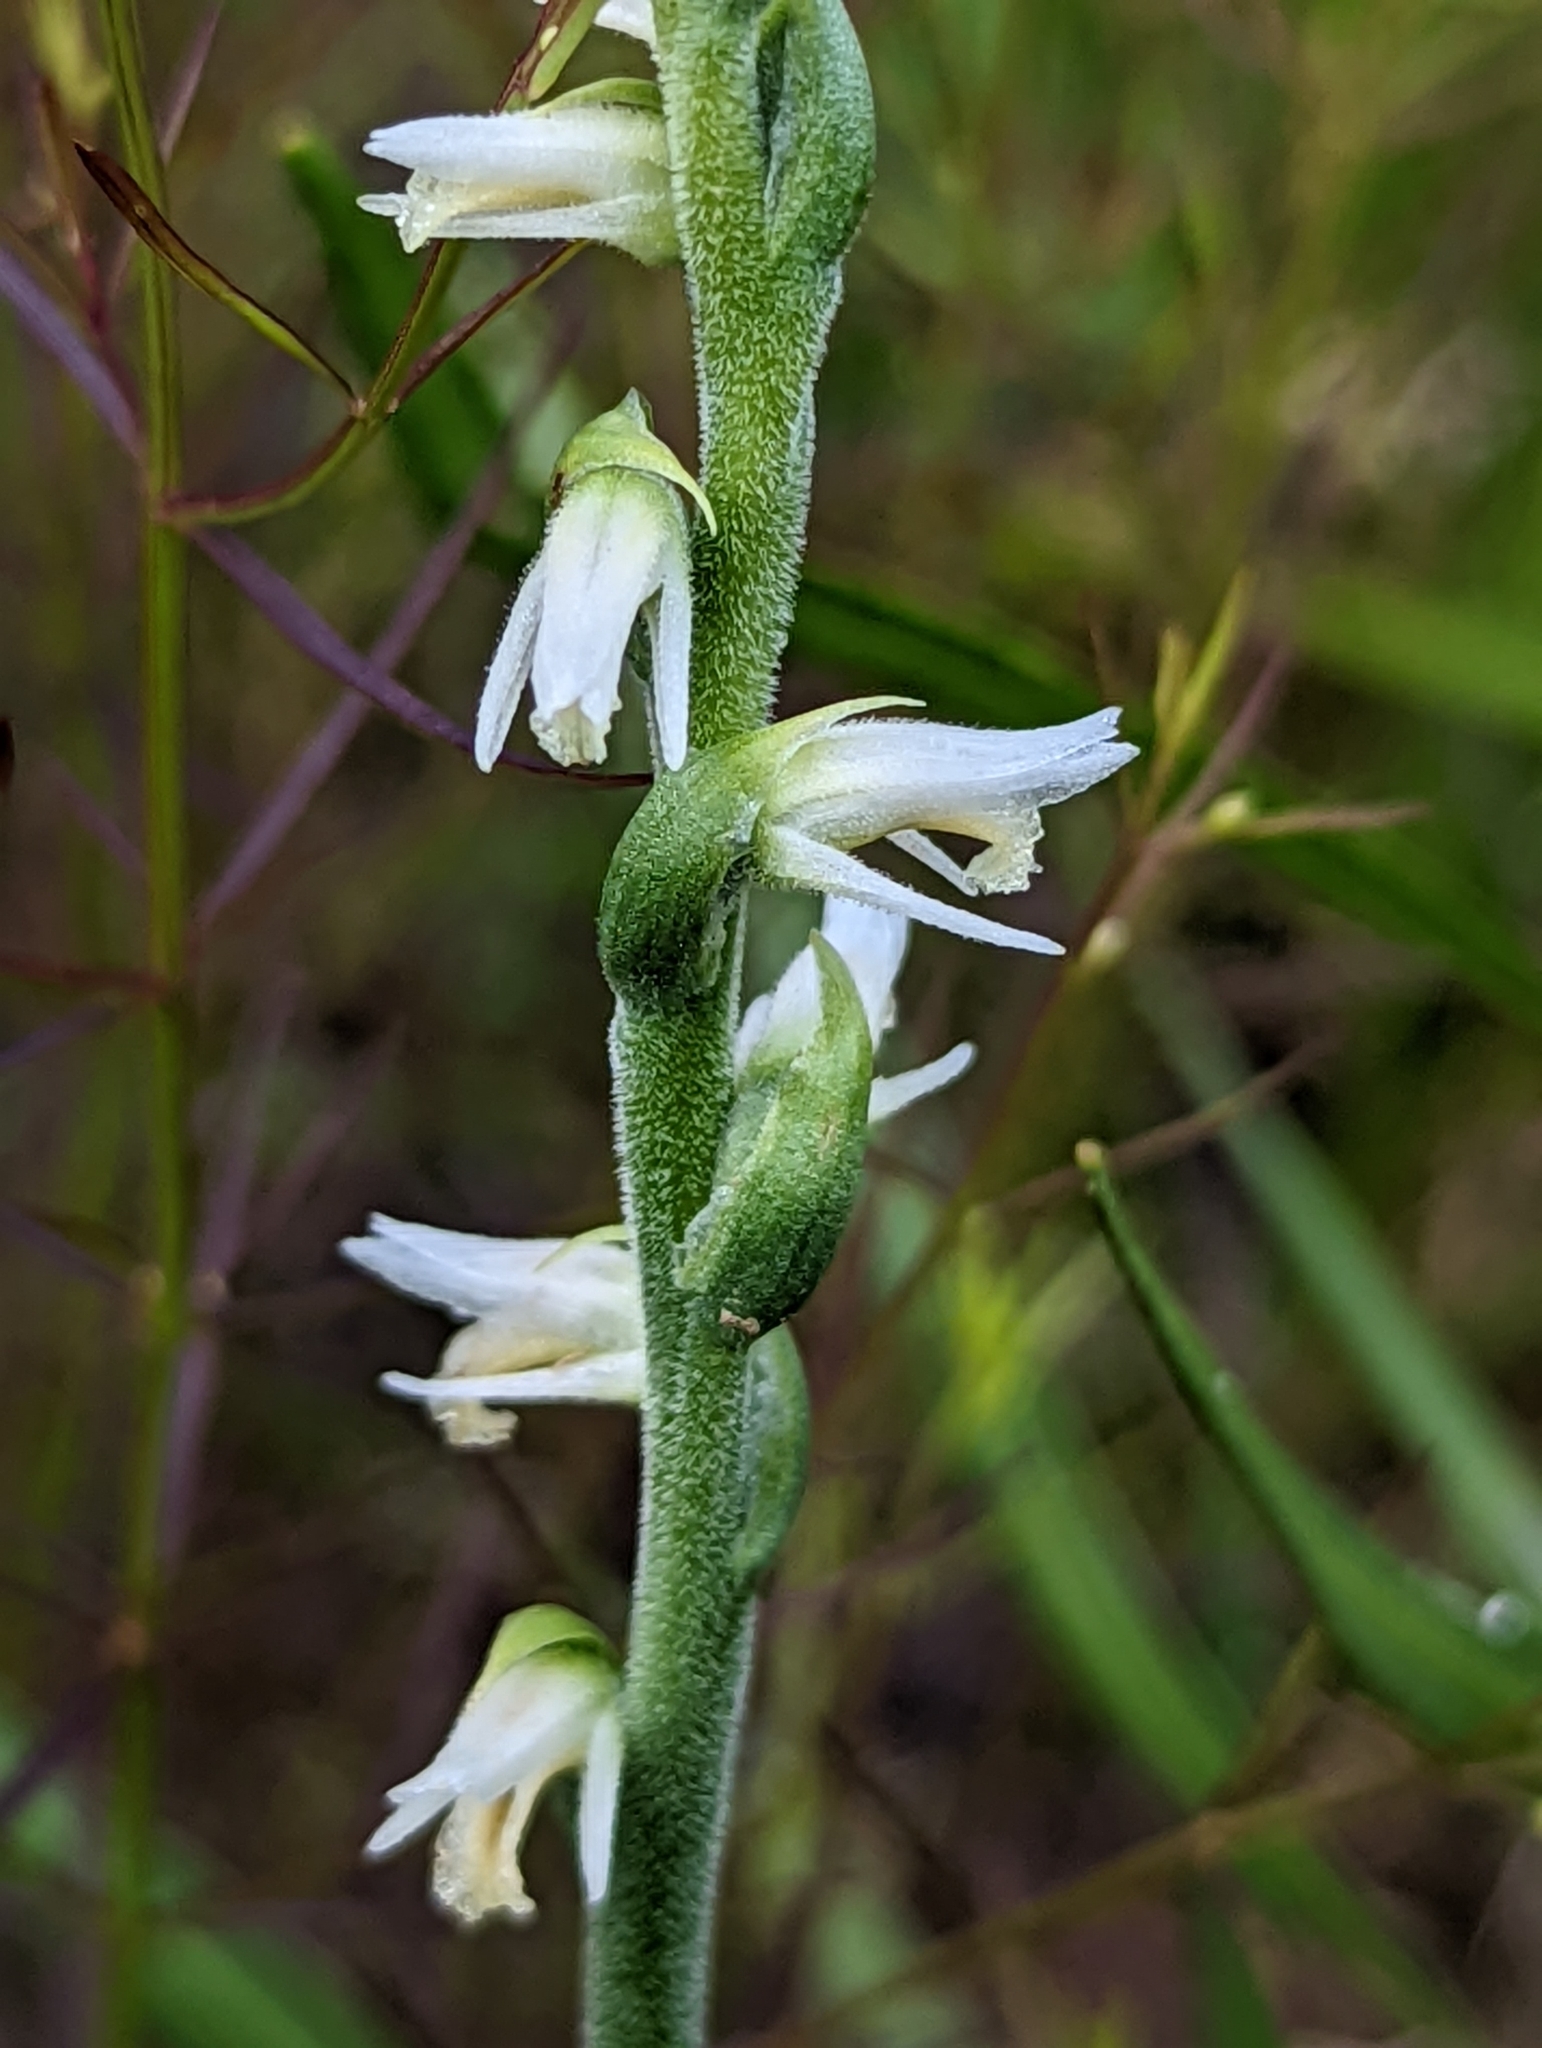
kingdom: Plantae
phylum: Tracheophyta
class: Liliopsida
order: Asparagales
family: Orchidaceae
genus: Spiranthes
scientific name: Spiranthes vernalis
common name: Spring ladies'-tresses
